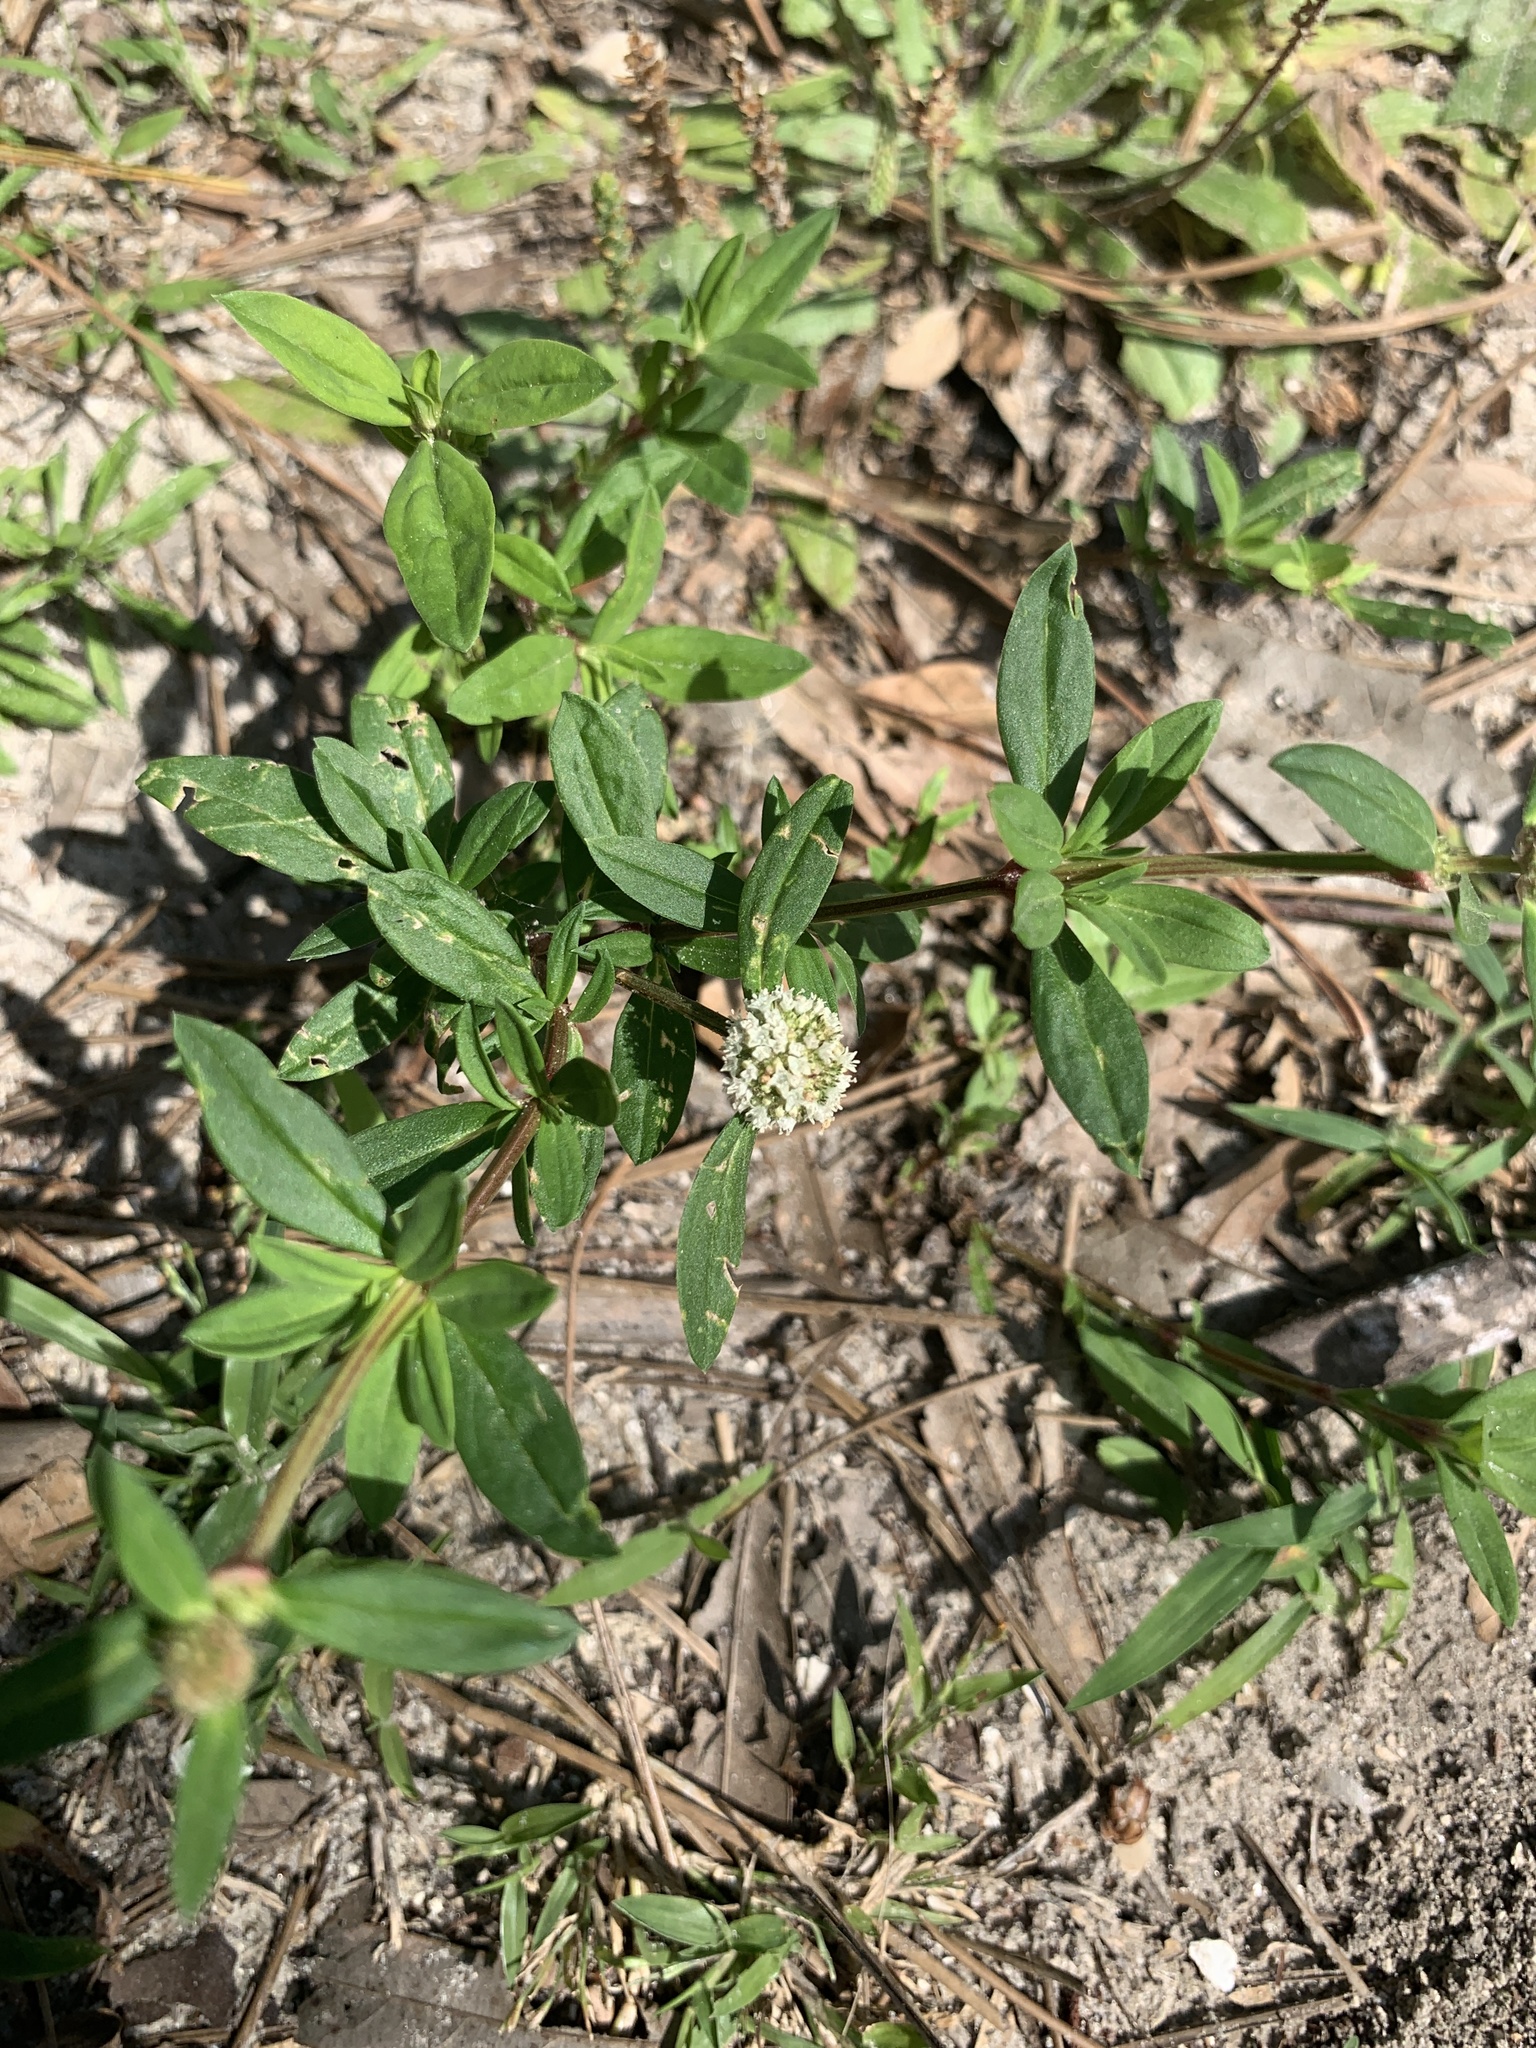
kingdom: Plantae
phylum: Tracheophyta
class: Magnoliopsida
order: Gentianales
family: Rubiaceae
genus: Spermacoce
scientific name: Spermacoce verticillata
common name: Shrubby false buttonweed
